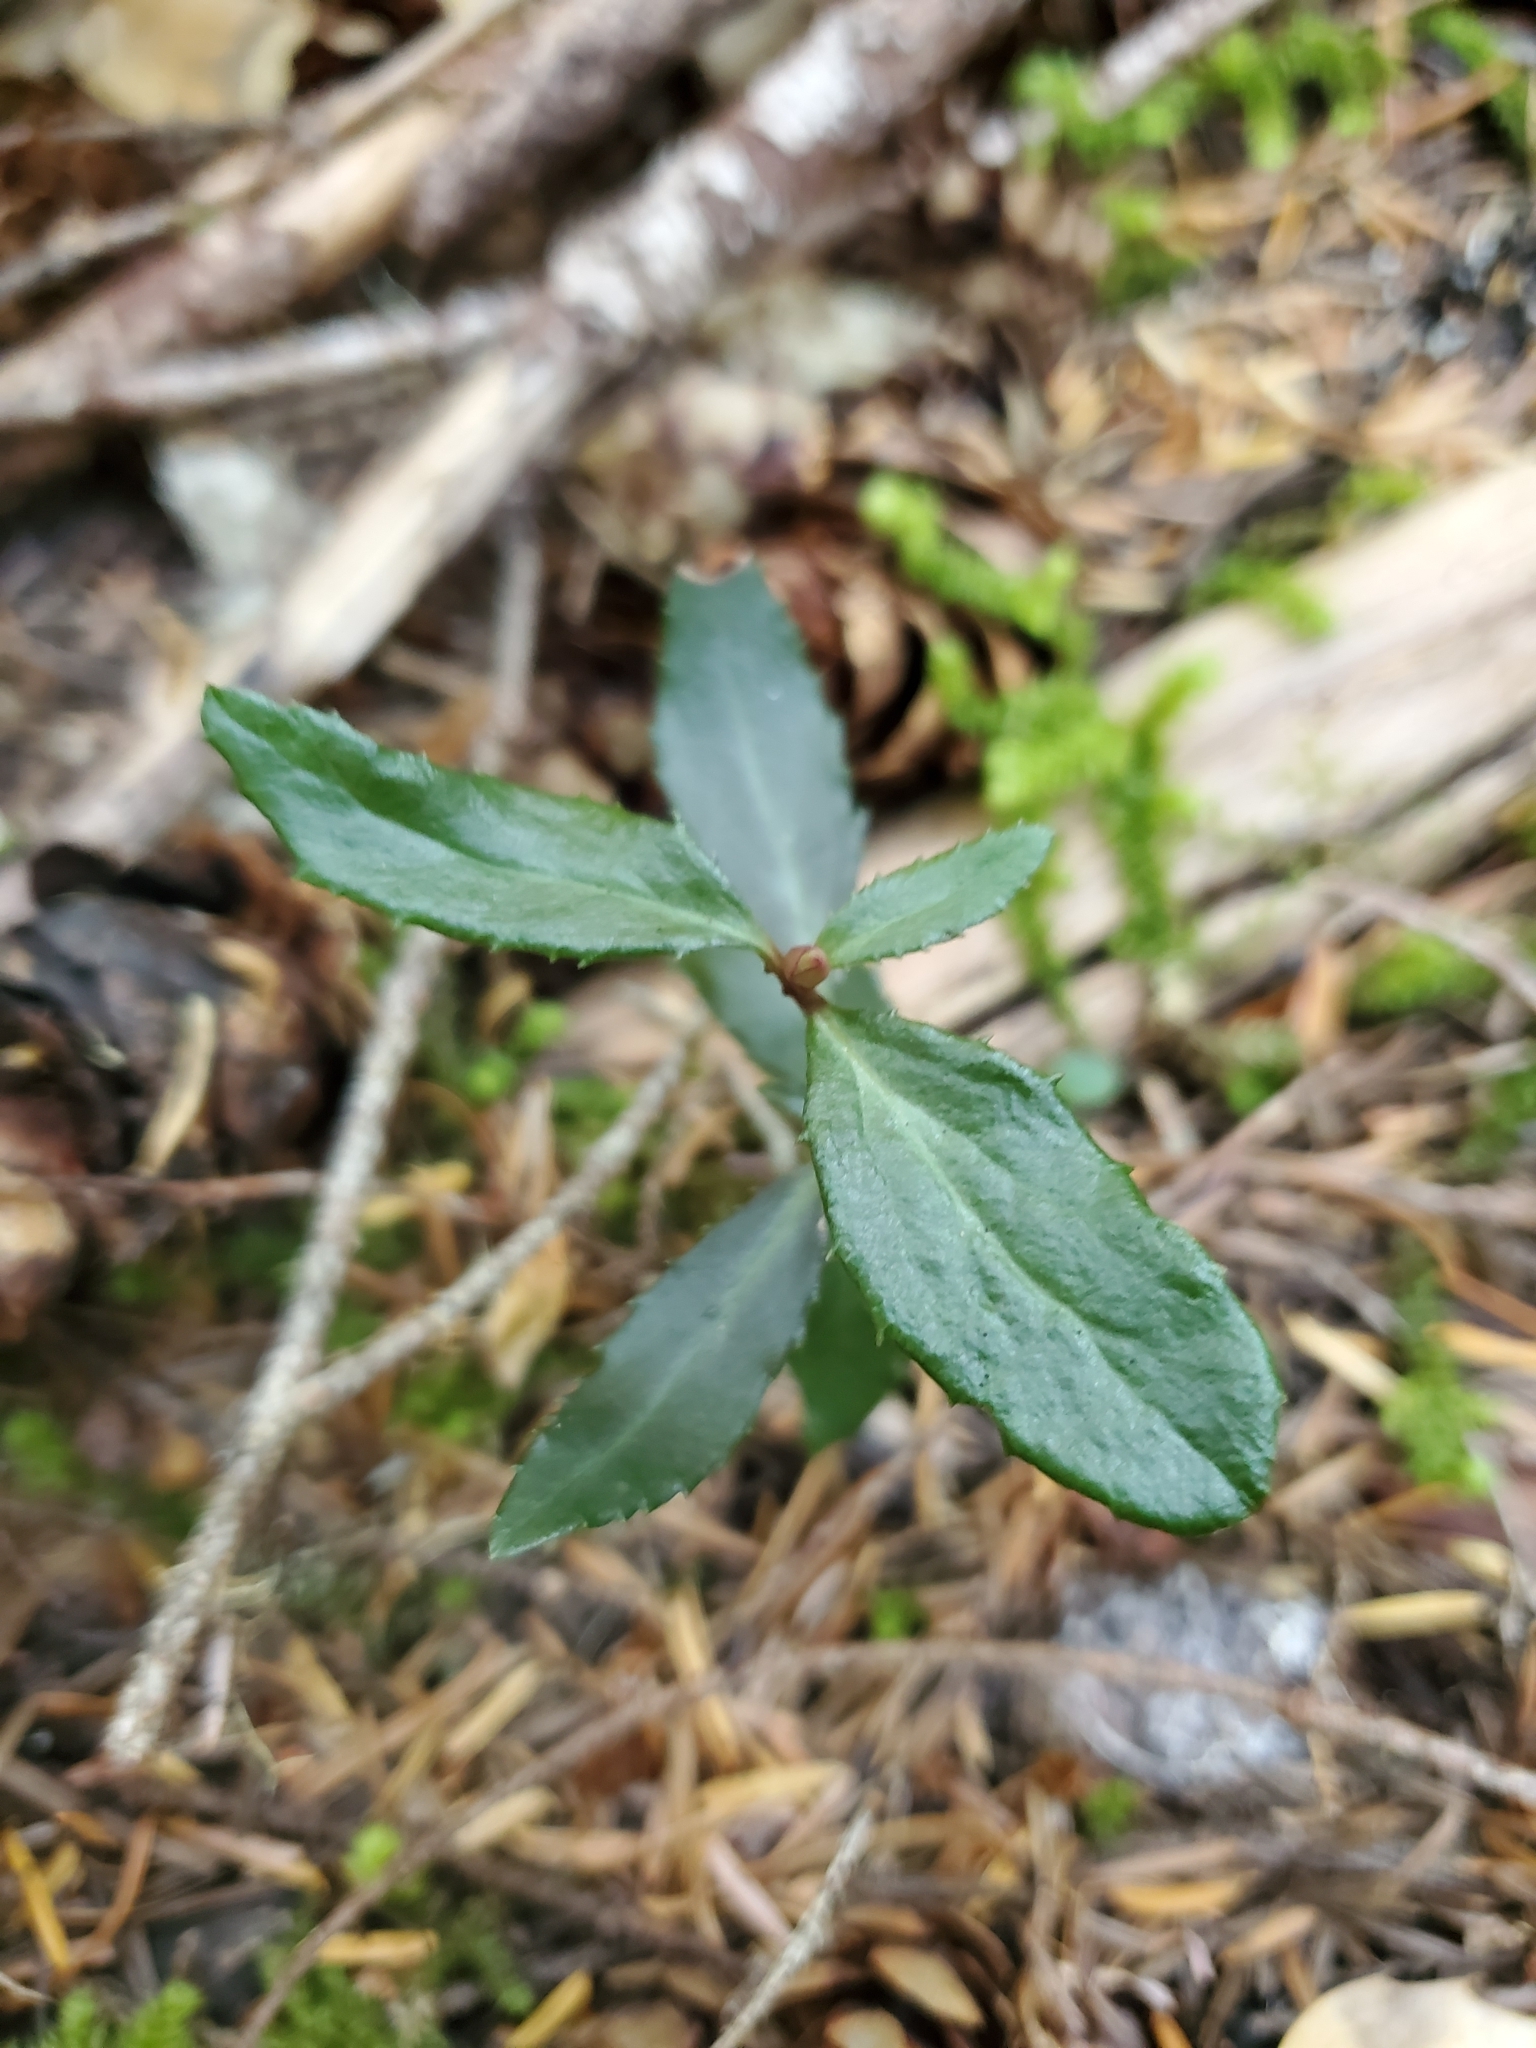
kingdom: Plantae
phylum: Tracheophyta
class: Magnoliopsida
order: Ericales
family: Ericaceae
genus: Chimaphila
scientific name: Chimaphila menziesii
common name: Menzies' pipsissewa
